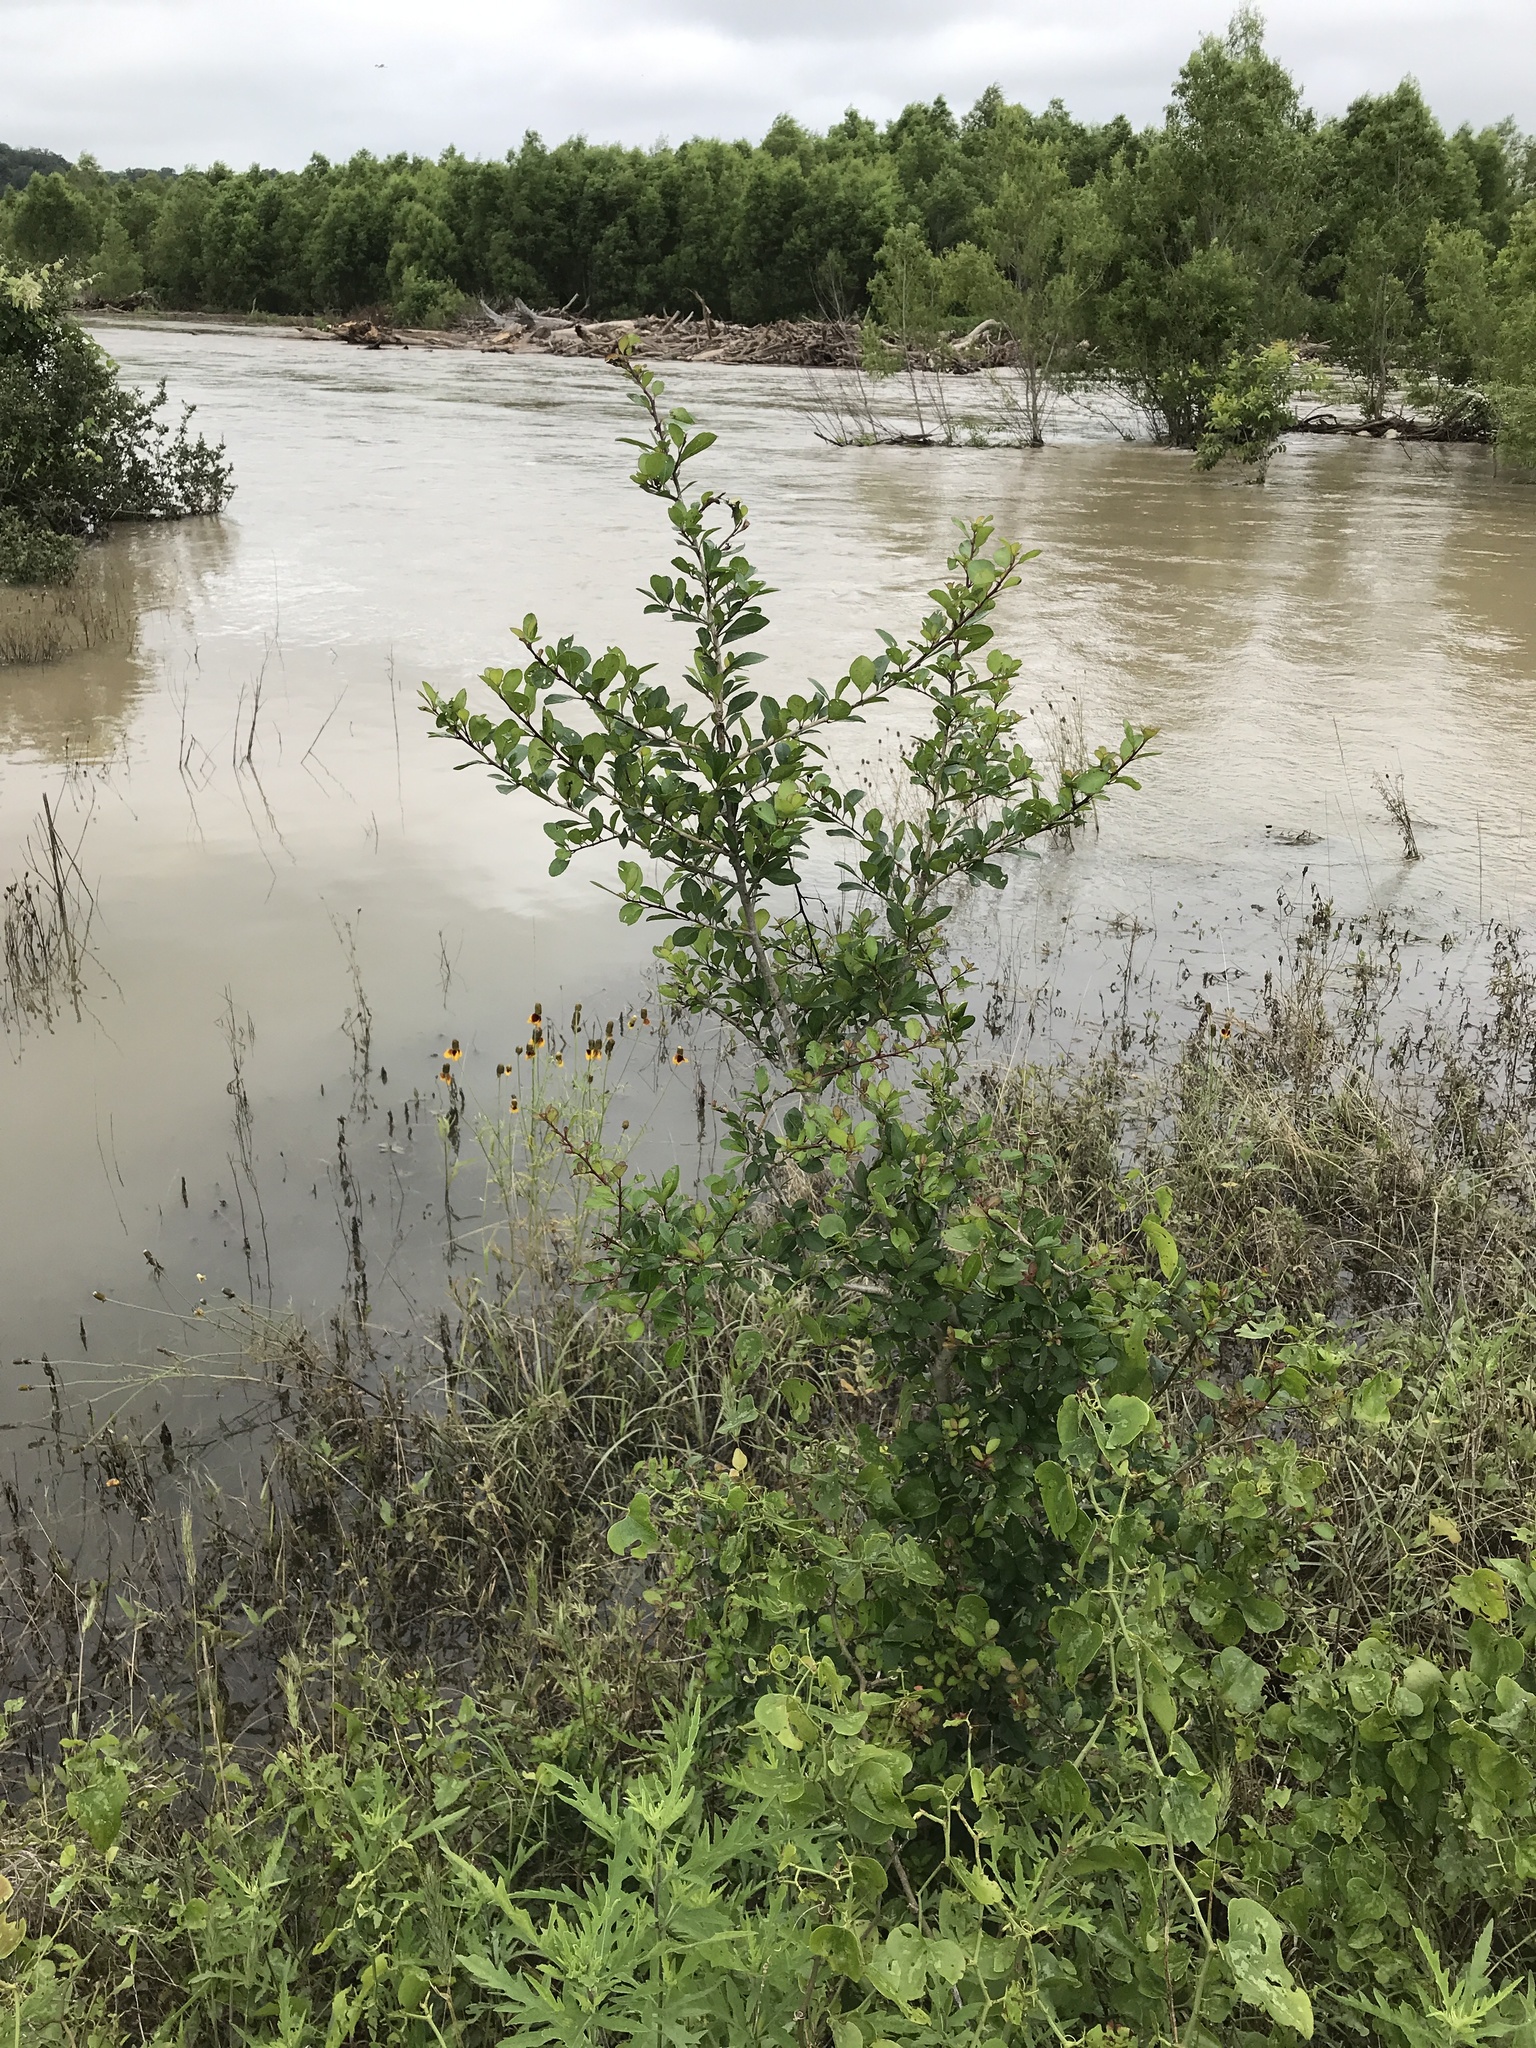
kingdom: Plantae
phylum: Tracheophyta
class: Magnoliopsida
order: Aquifoliales
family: Aquifoliaceae
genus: Ilex
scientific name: Ilex decidua
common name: Possum-haw
